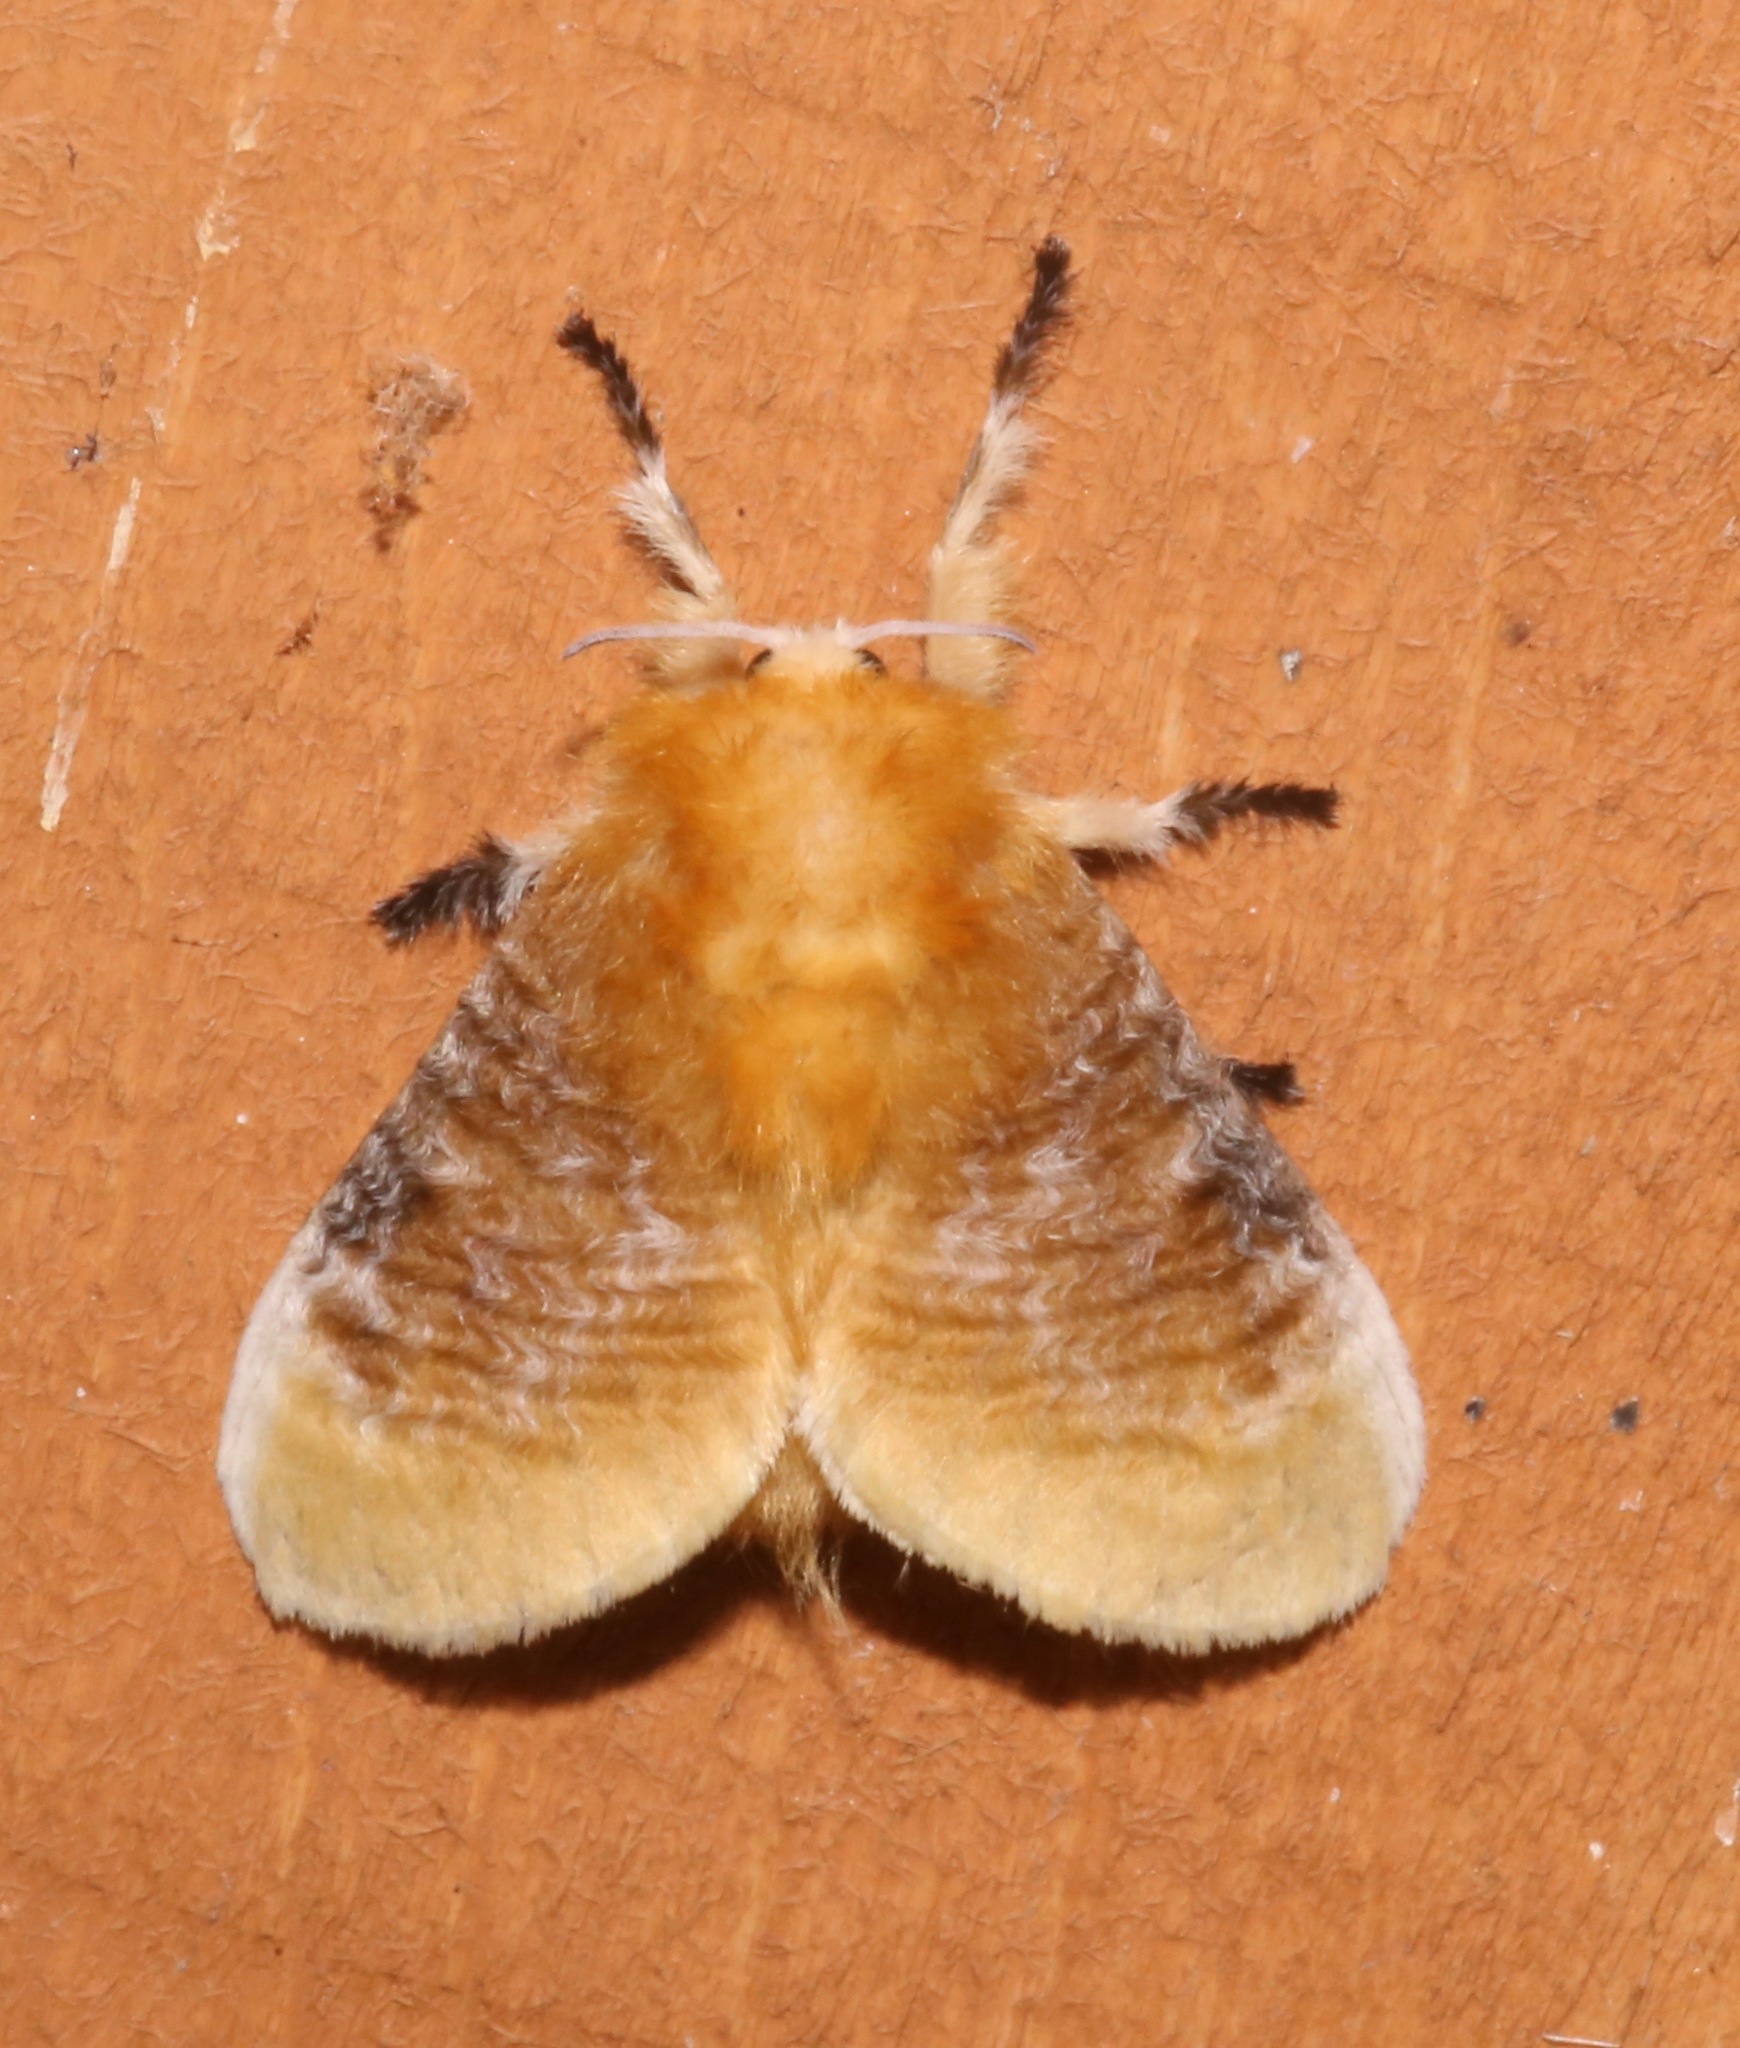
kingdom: Animalia
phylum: Arthropoda
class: Insecta
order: Lepidoptera
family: Megalopygidae
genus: Megalopyge
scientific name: Megalopyge opercularis
